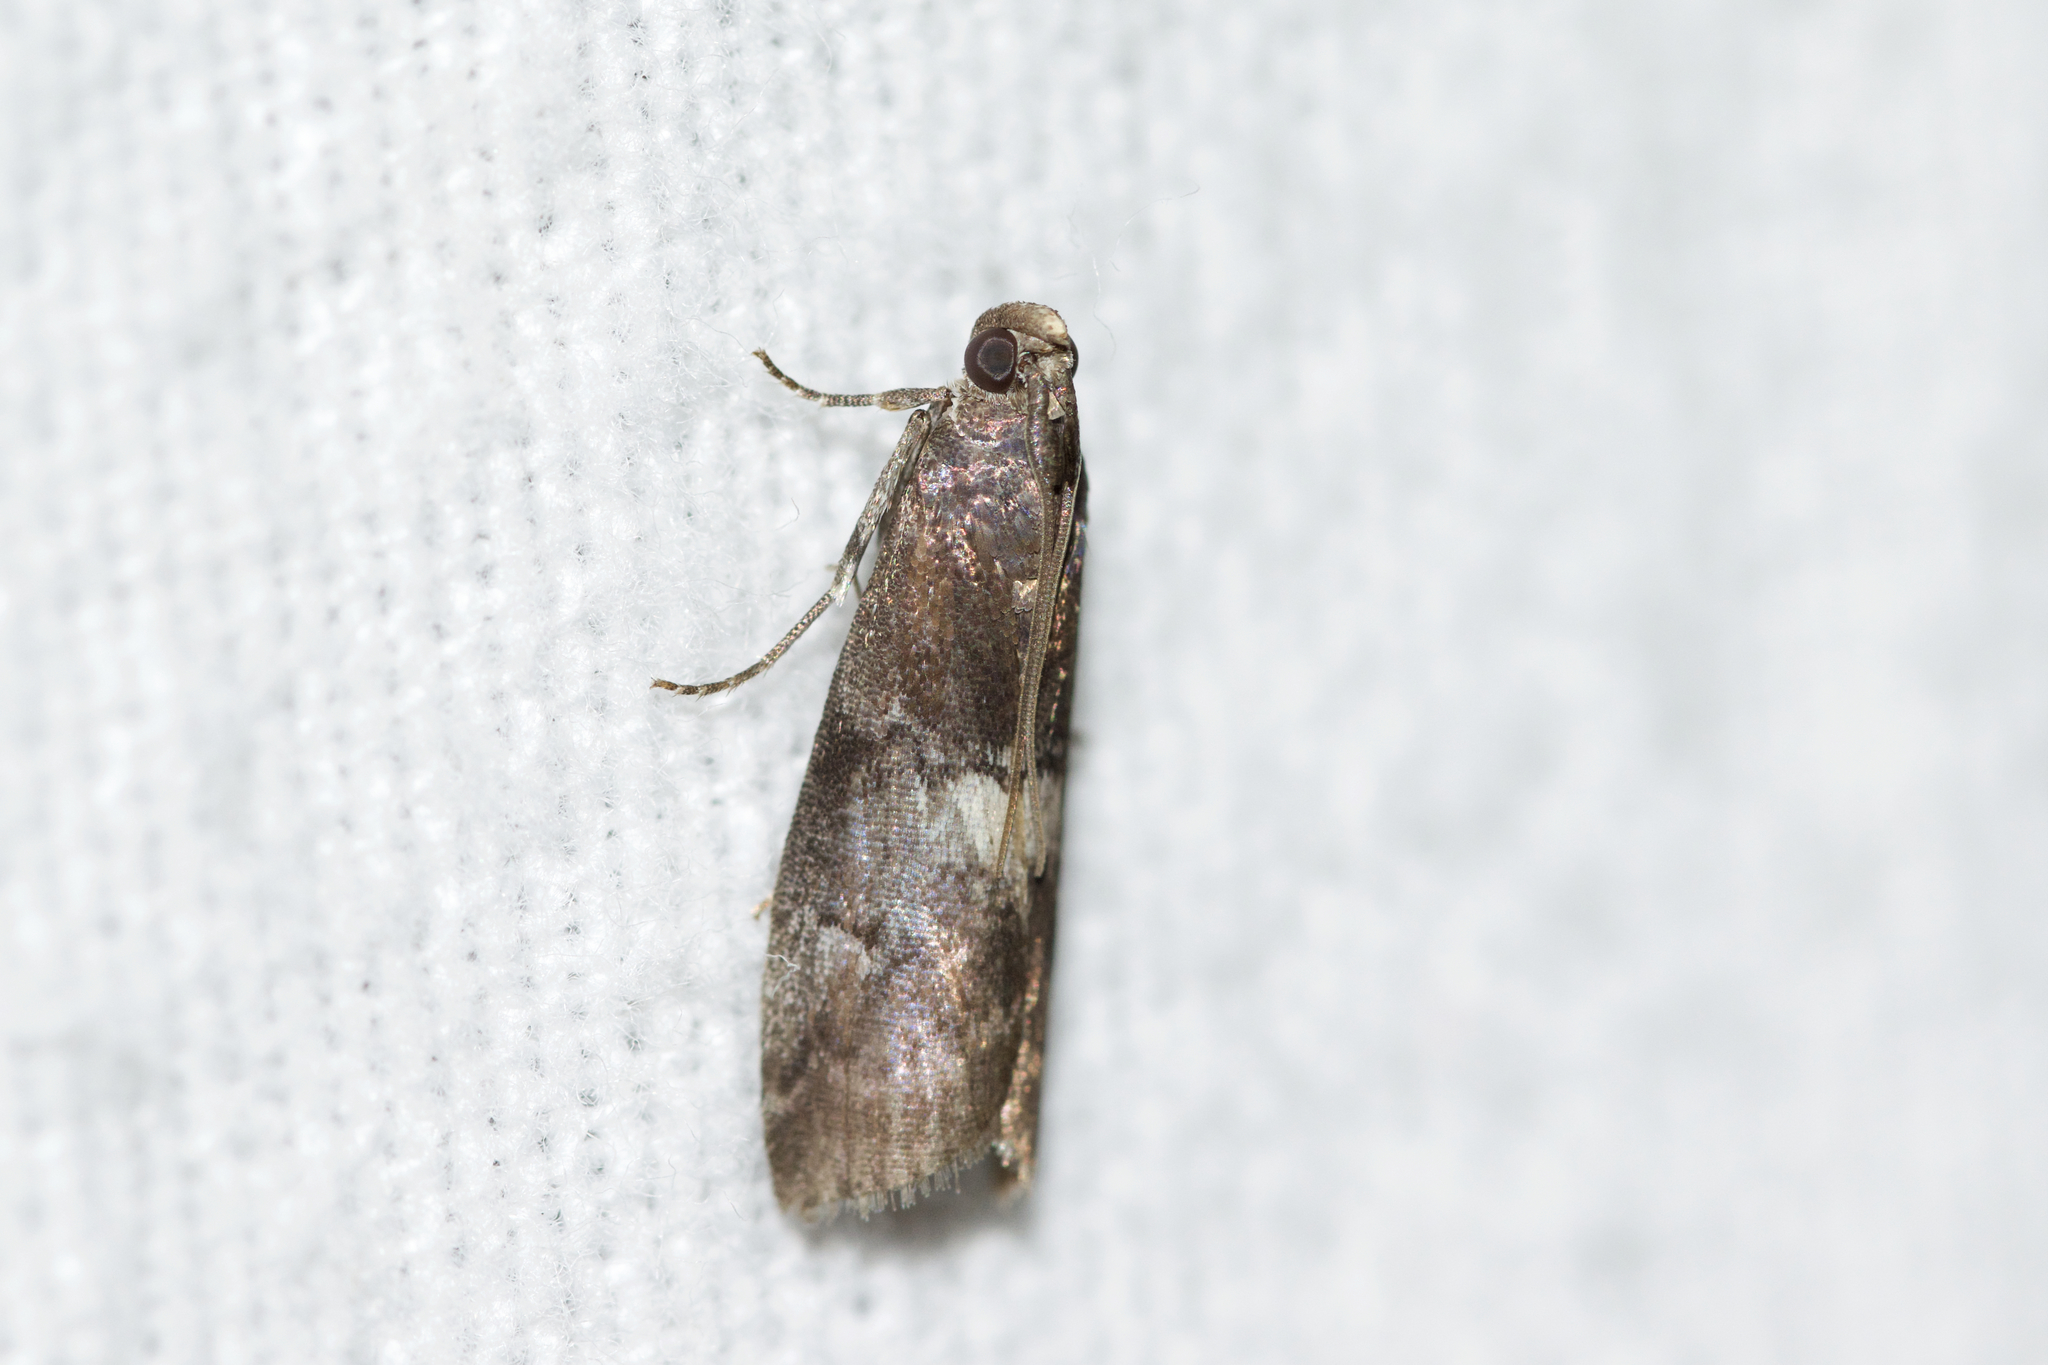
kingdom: Animalia
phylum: Arthropoda
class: Insecta
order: Lepidoptera
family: Pyralidae
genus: Salebriaria
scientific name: Salebriaria engeli
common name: Engel's salebriaria moth
